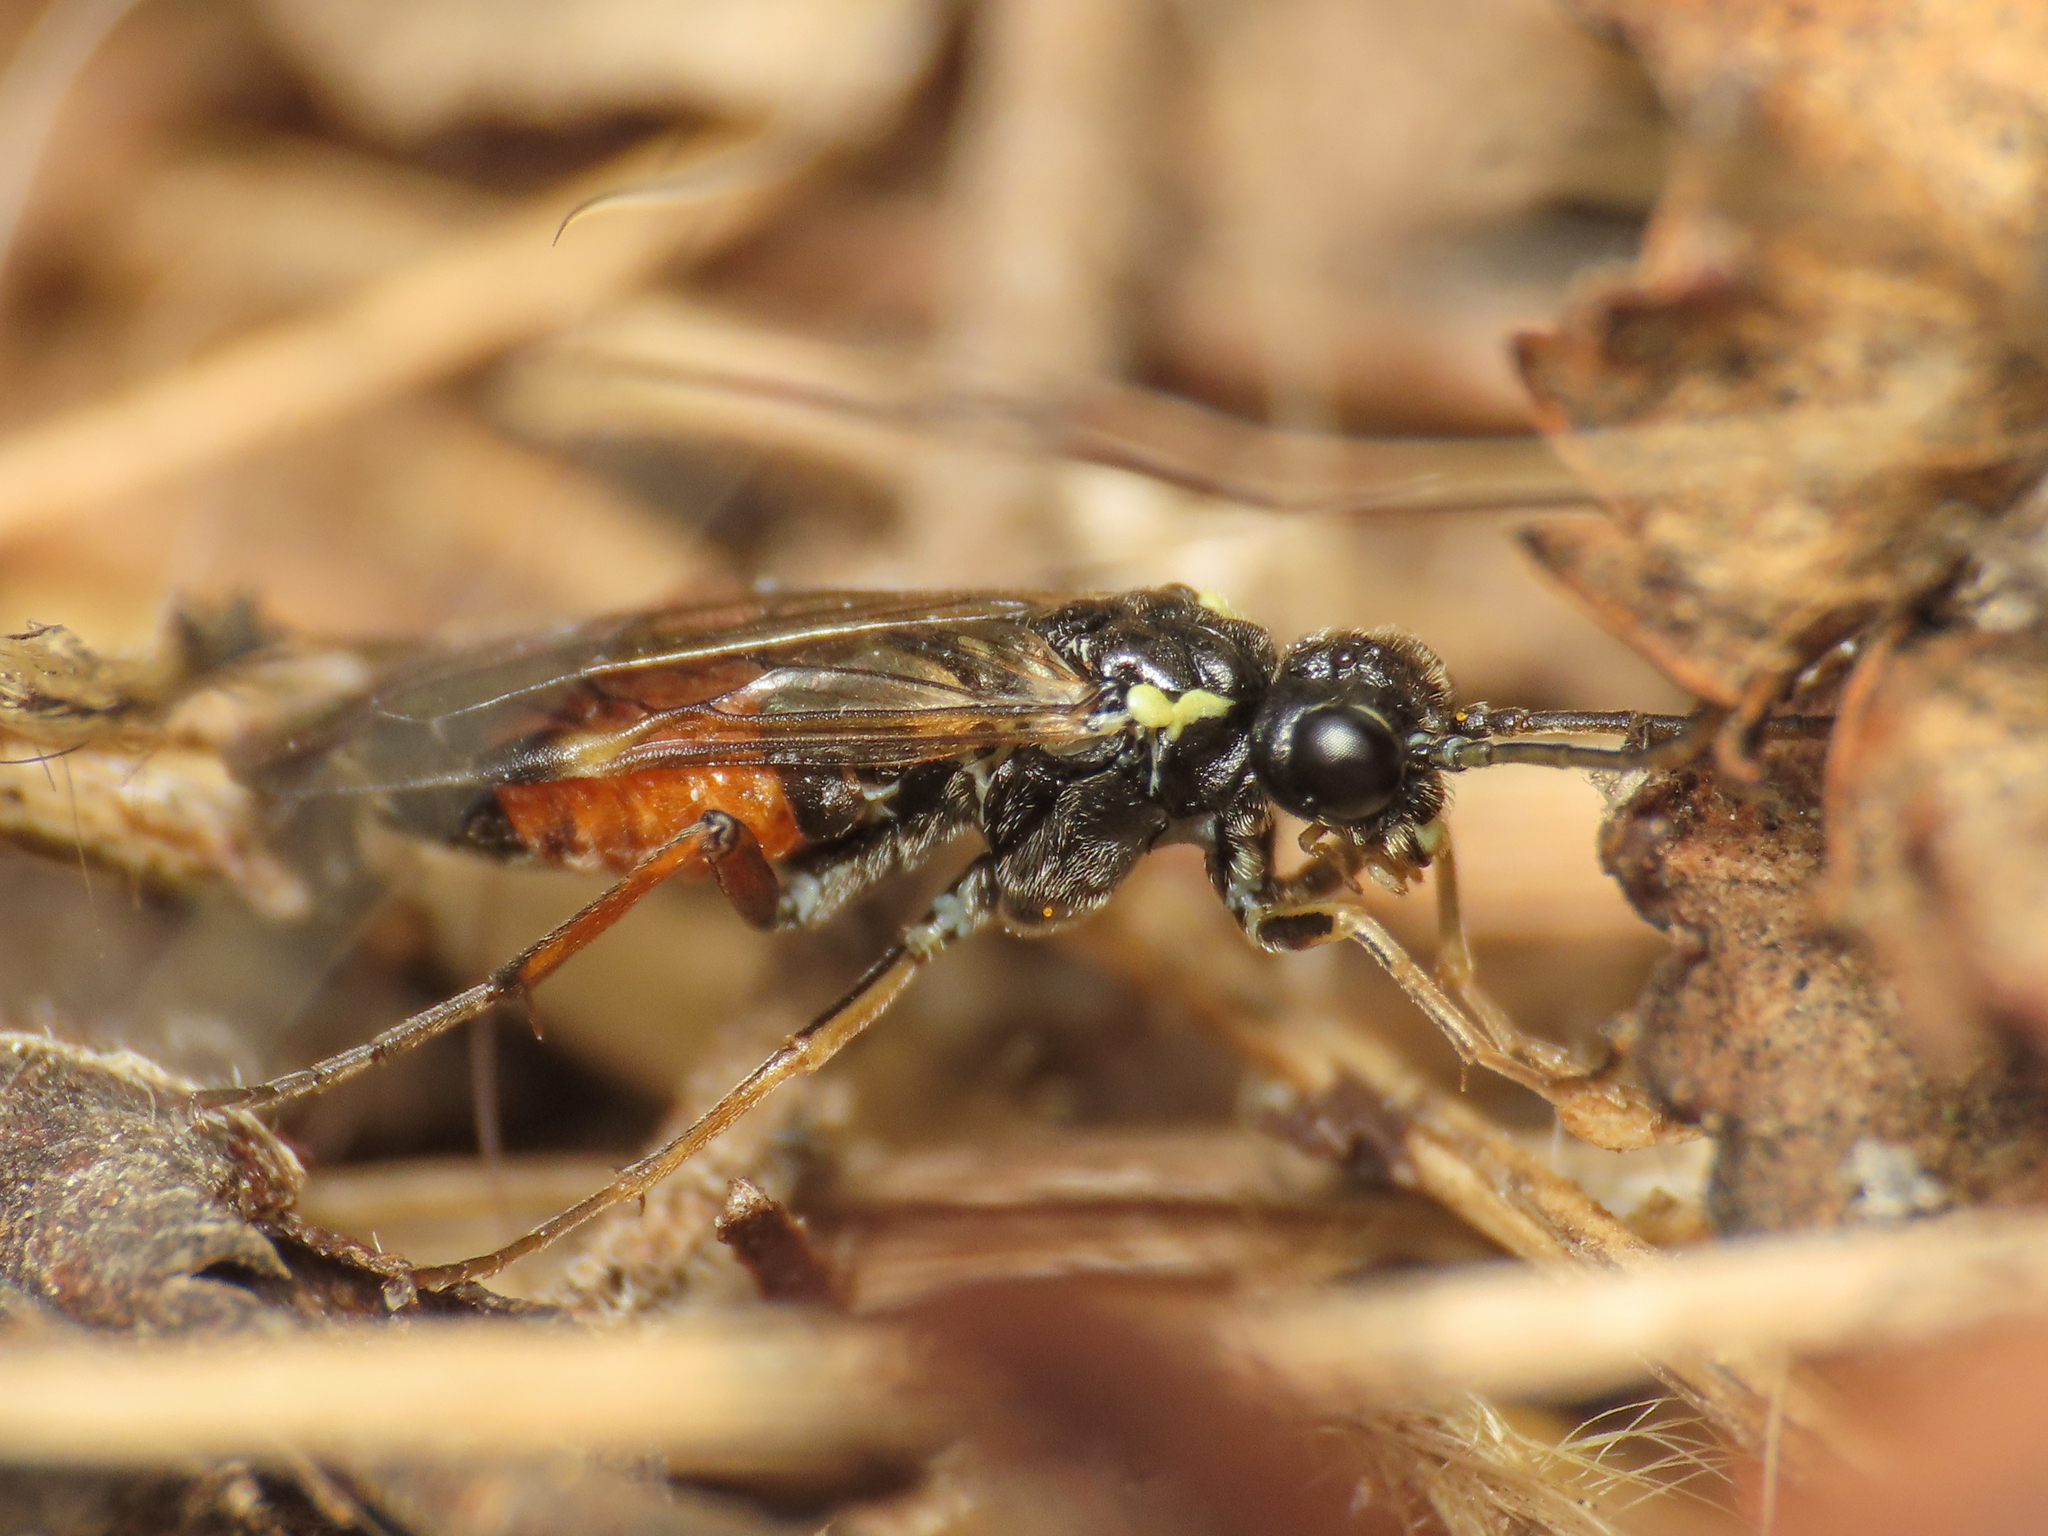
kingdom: Animalia
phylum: Arthropoda
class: Insecta
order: Hymenoptera
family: Tenthredinidae
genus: Aglaostigma
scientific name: Aglaostigma aucupariae
